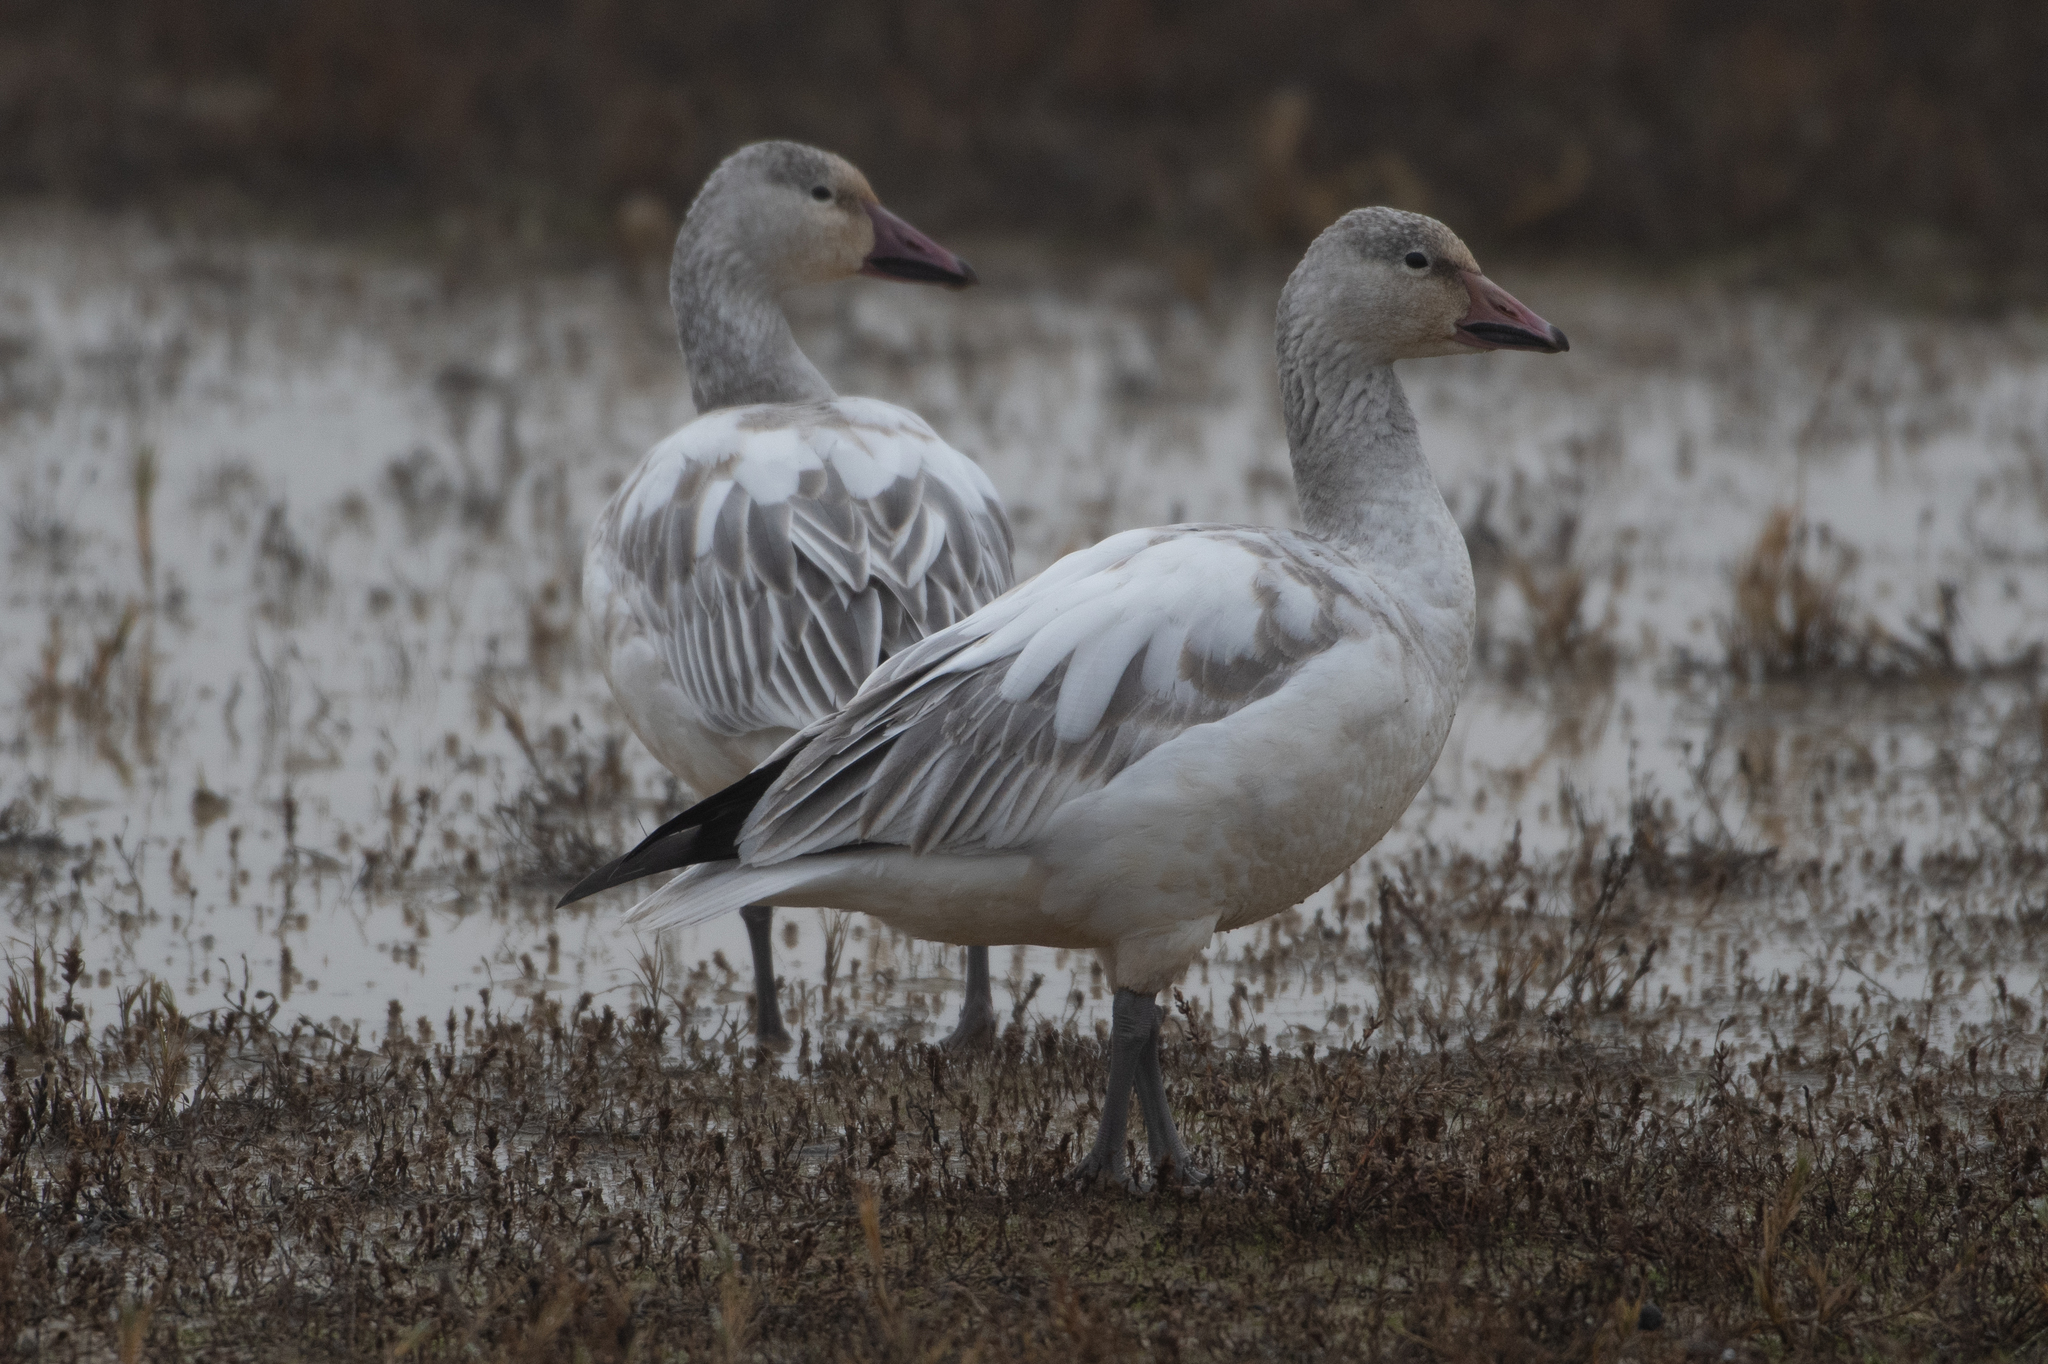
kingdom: Animalia
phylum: Chordata
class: Aves
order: Anseriformes
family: Anatidae
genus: Anser
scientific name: Anser caerulescens
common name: Snow goose
